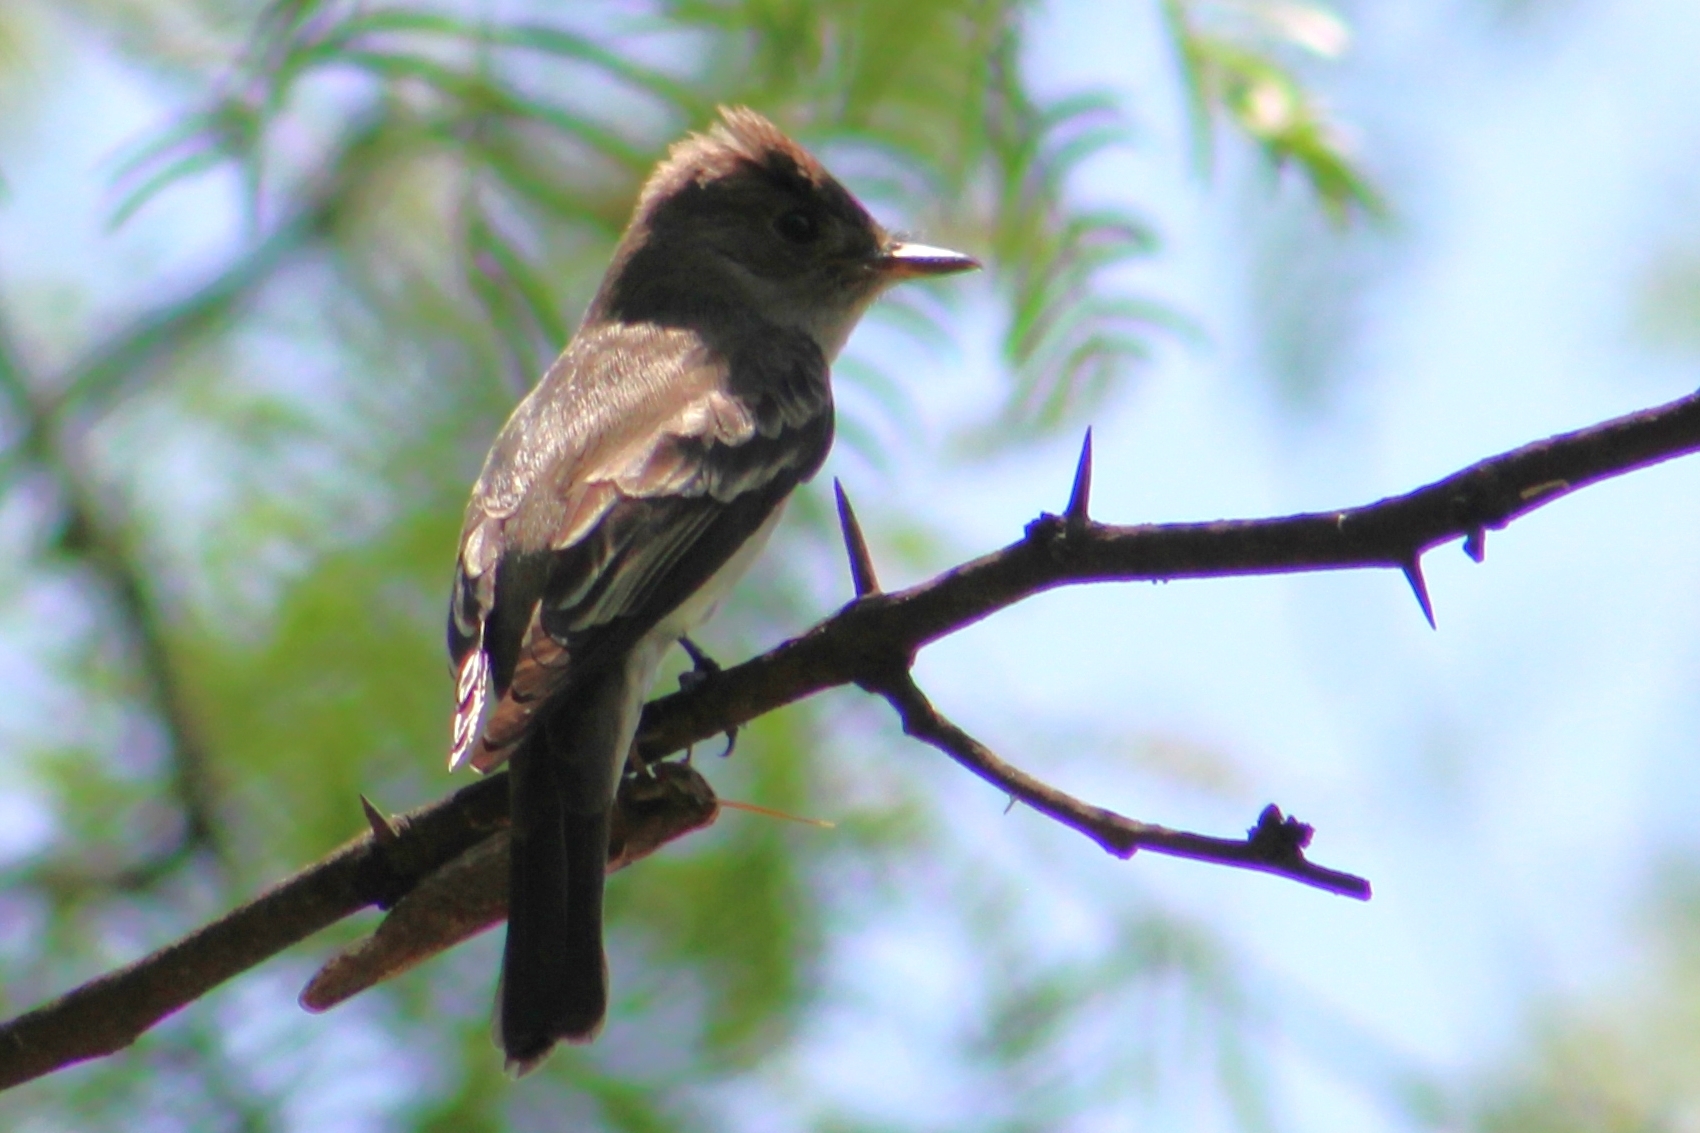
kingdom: Animalia
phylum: Chordata
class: Aves
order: Passeriformes
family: Tyrannidae
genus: Contopus
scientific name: Contopus sordidulus
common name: Western wood-pewee
